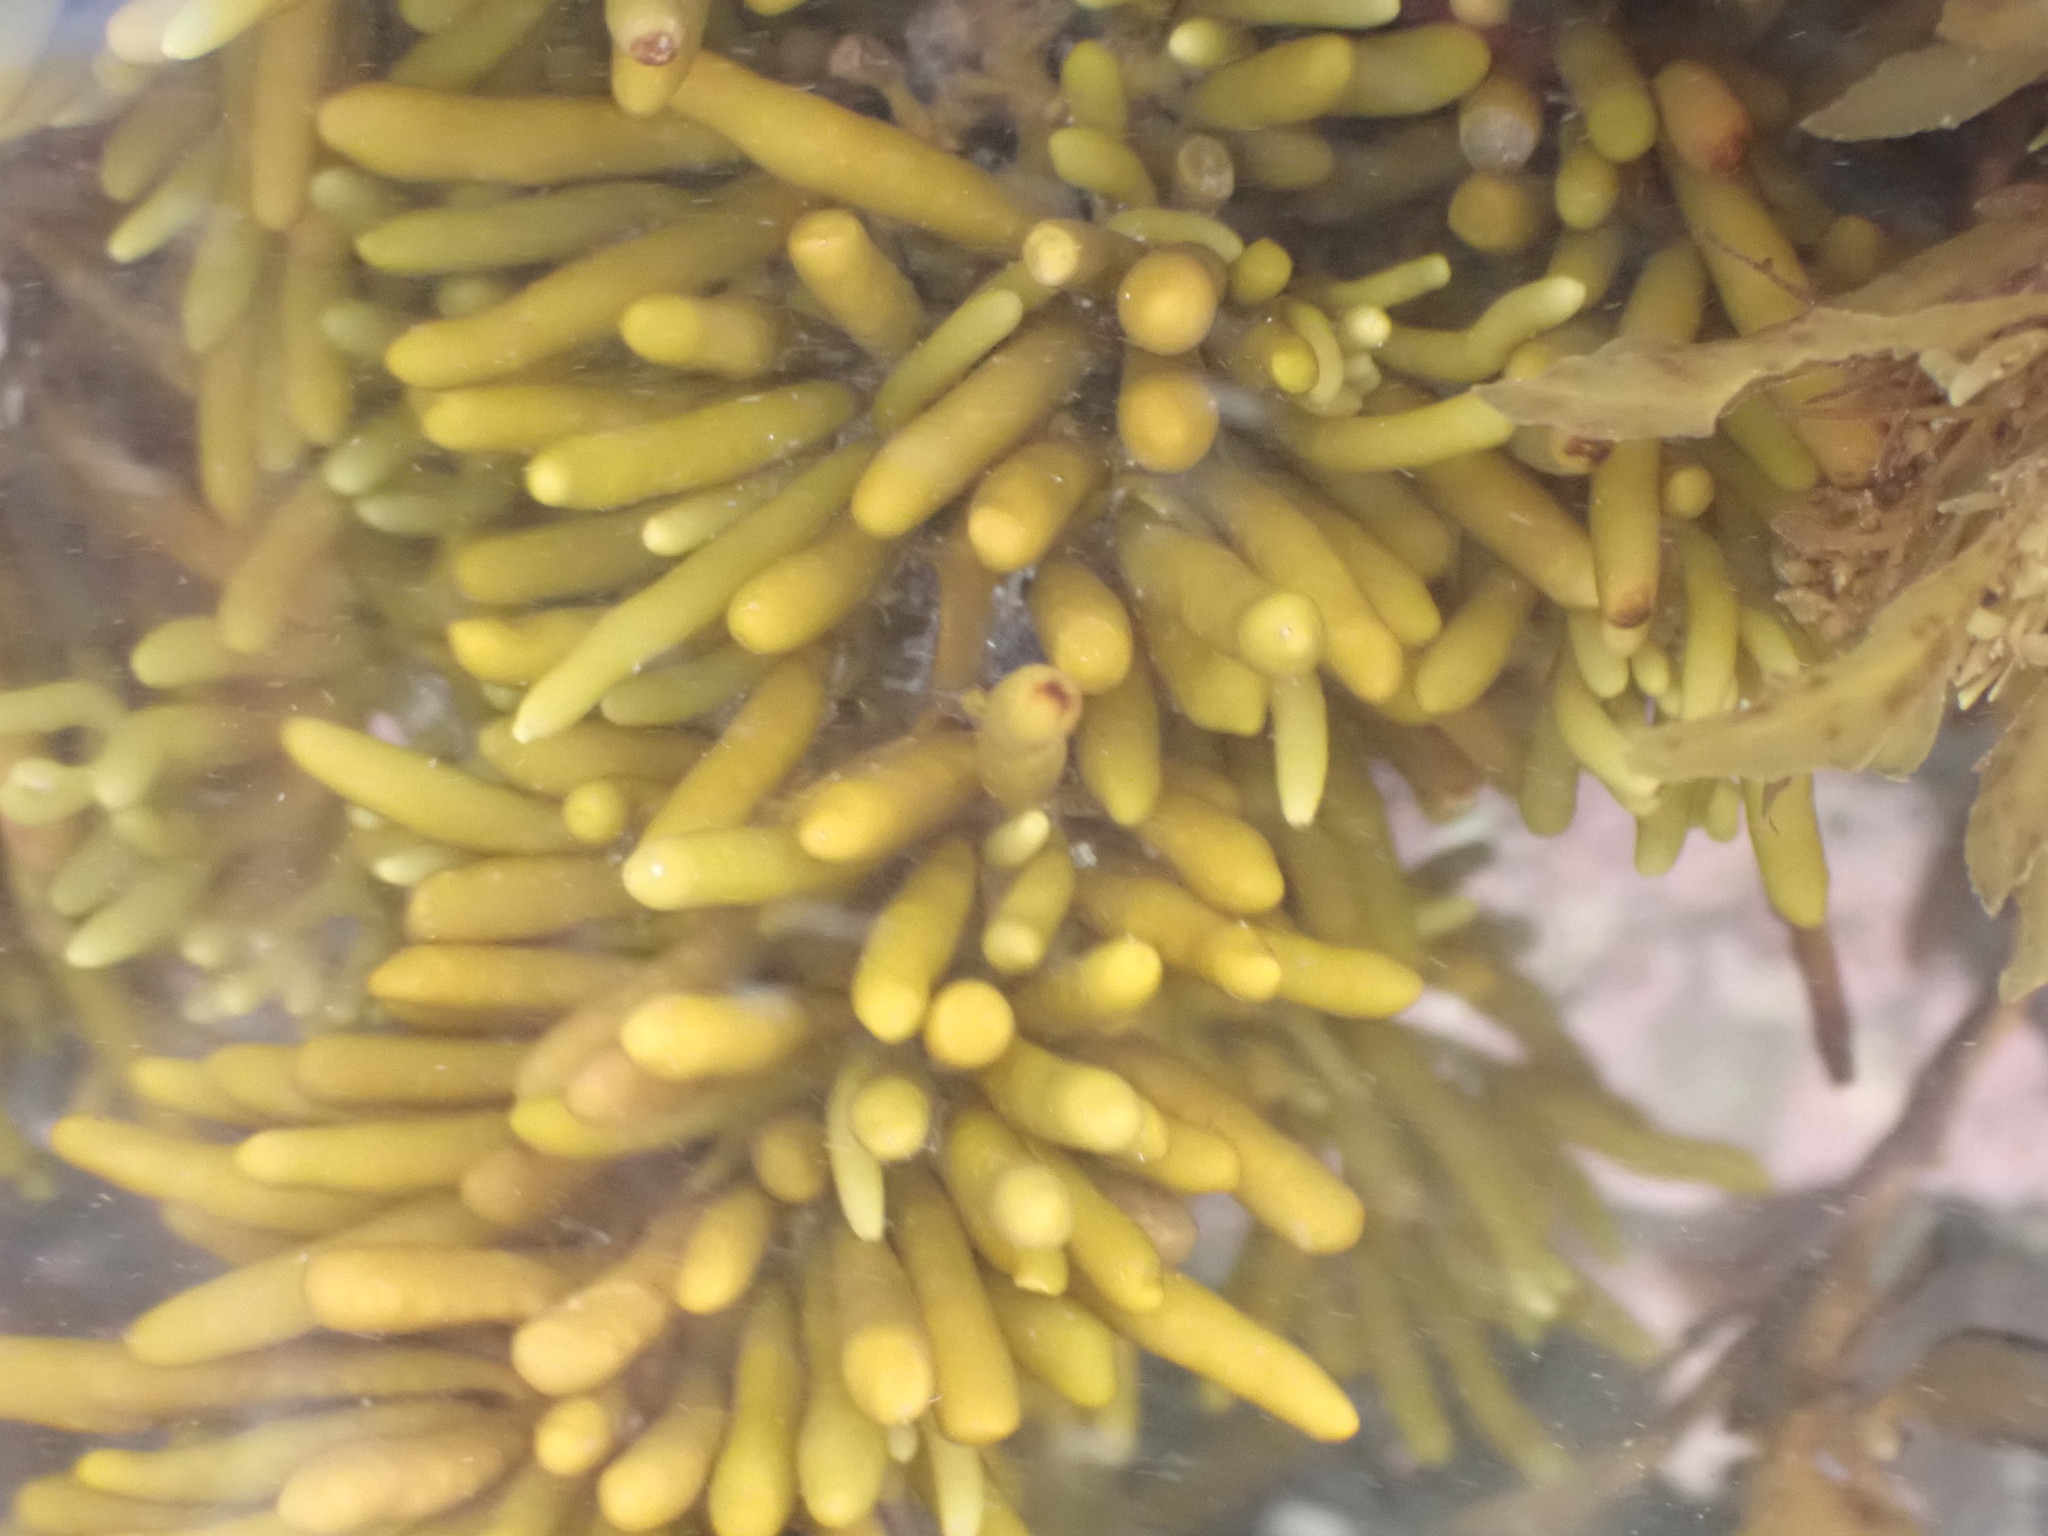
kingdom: Chromista
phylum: Ochrophyta
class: Phaeophyceae
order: Fucales
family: Sargassaceae
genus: Cystophora
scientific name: Cystophora torulosa
